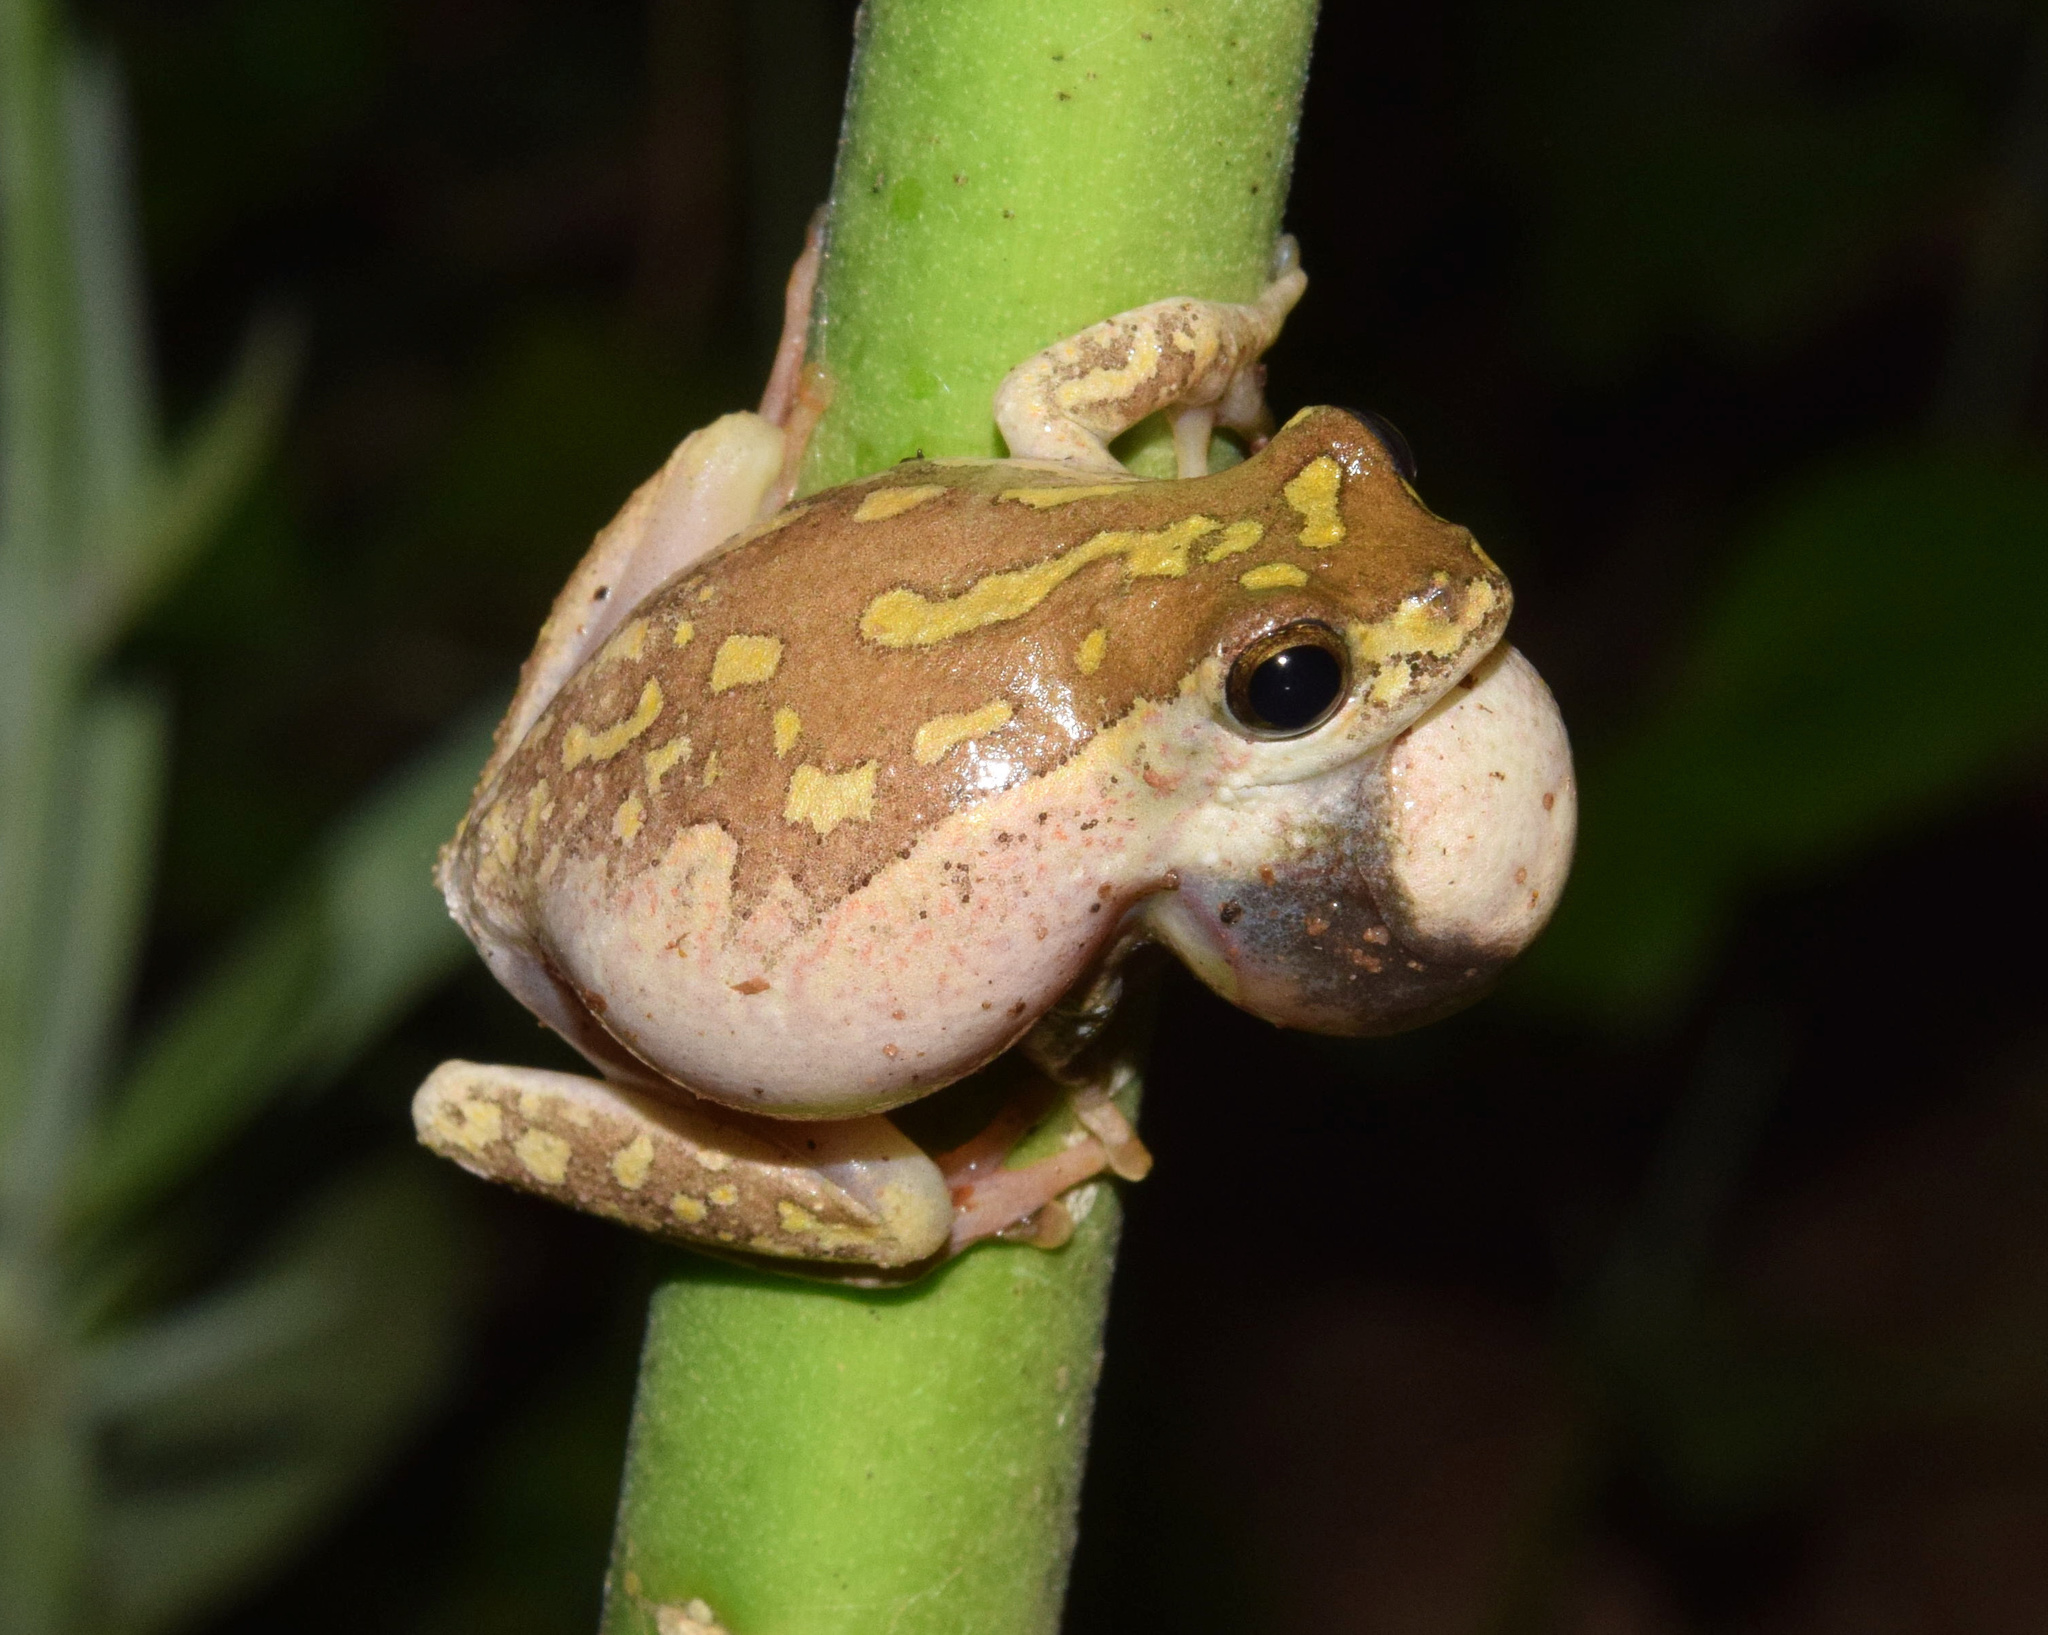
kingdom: Animalia
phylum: Chordata
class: Amphibia
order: Anura
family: Hyperoliidae
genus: Hyperolius
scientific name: Hyperolius marmoratus
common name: Painted reed frog
